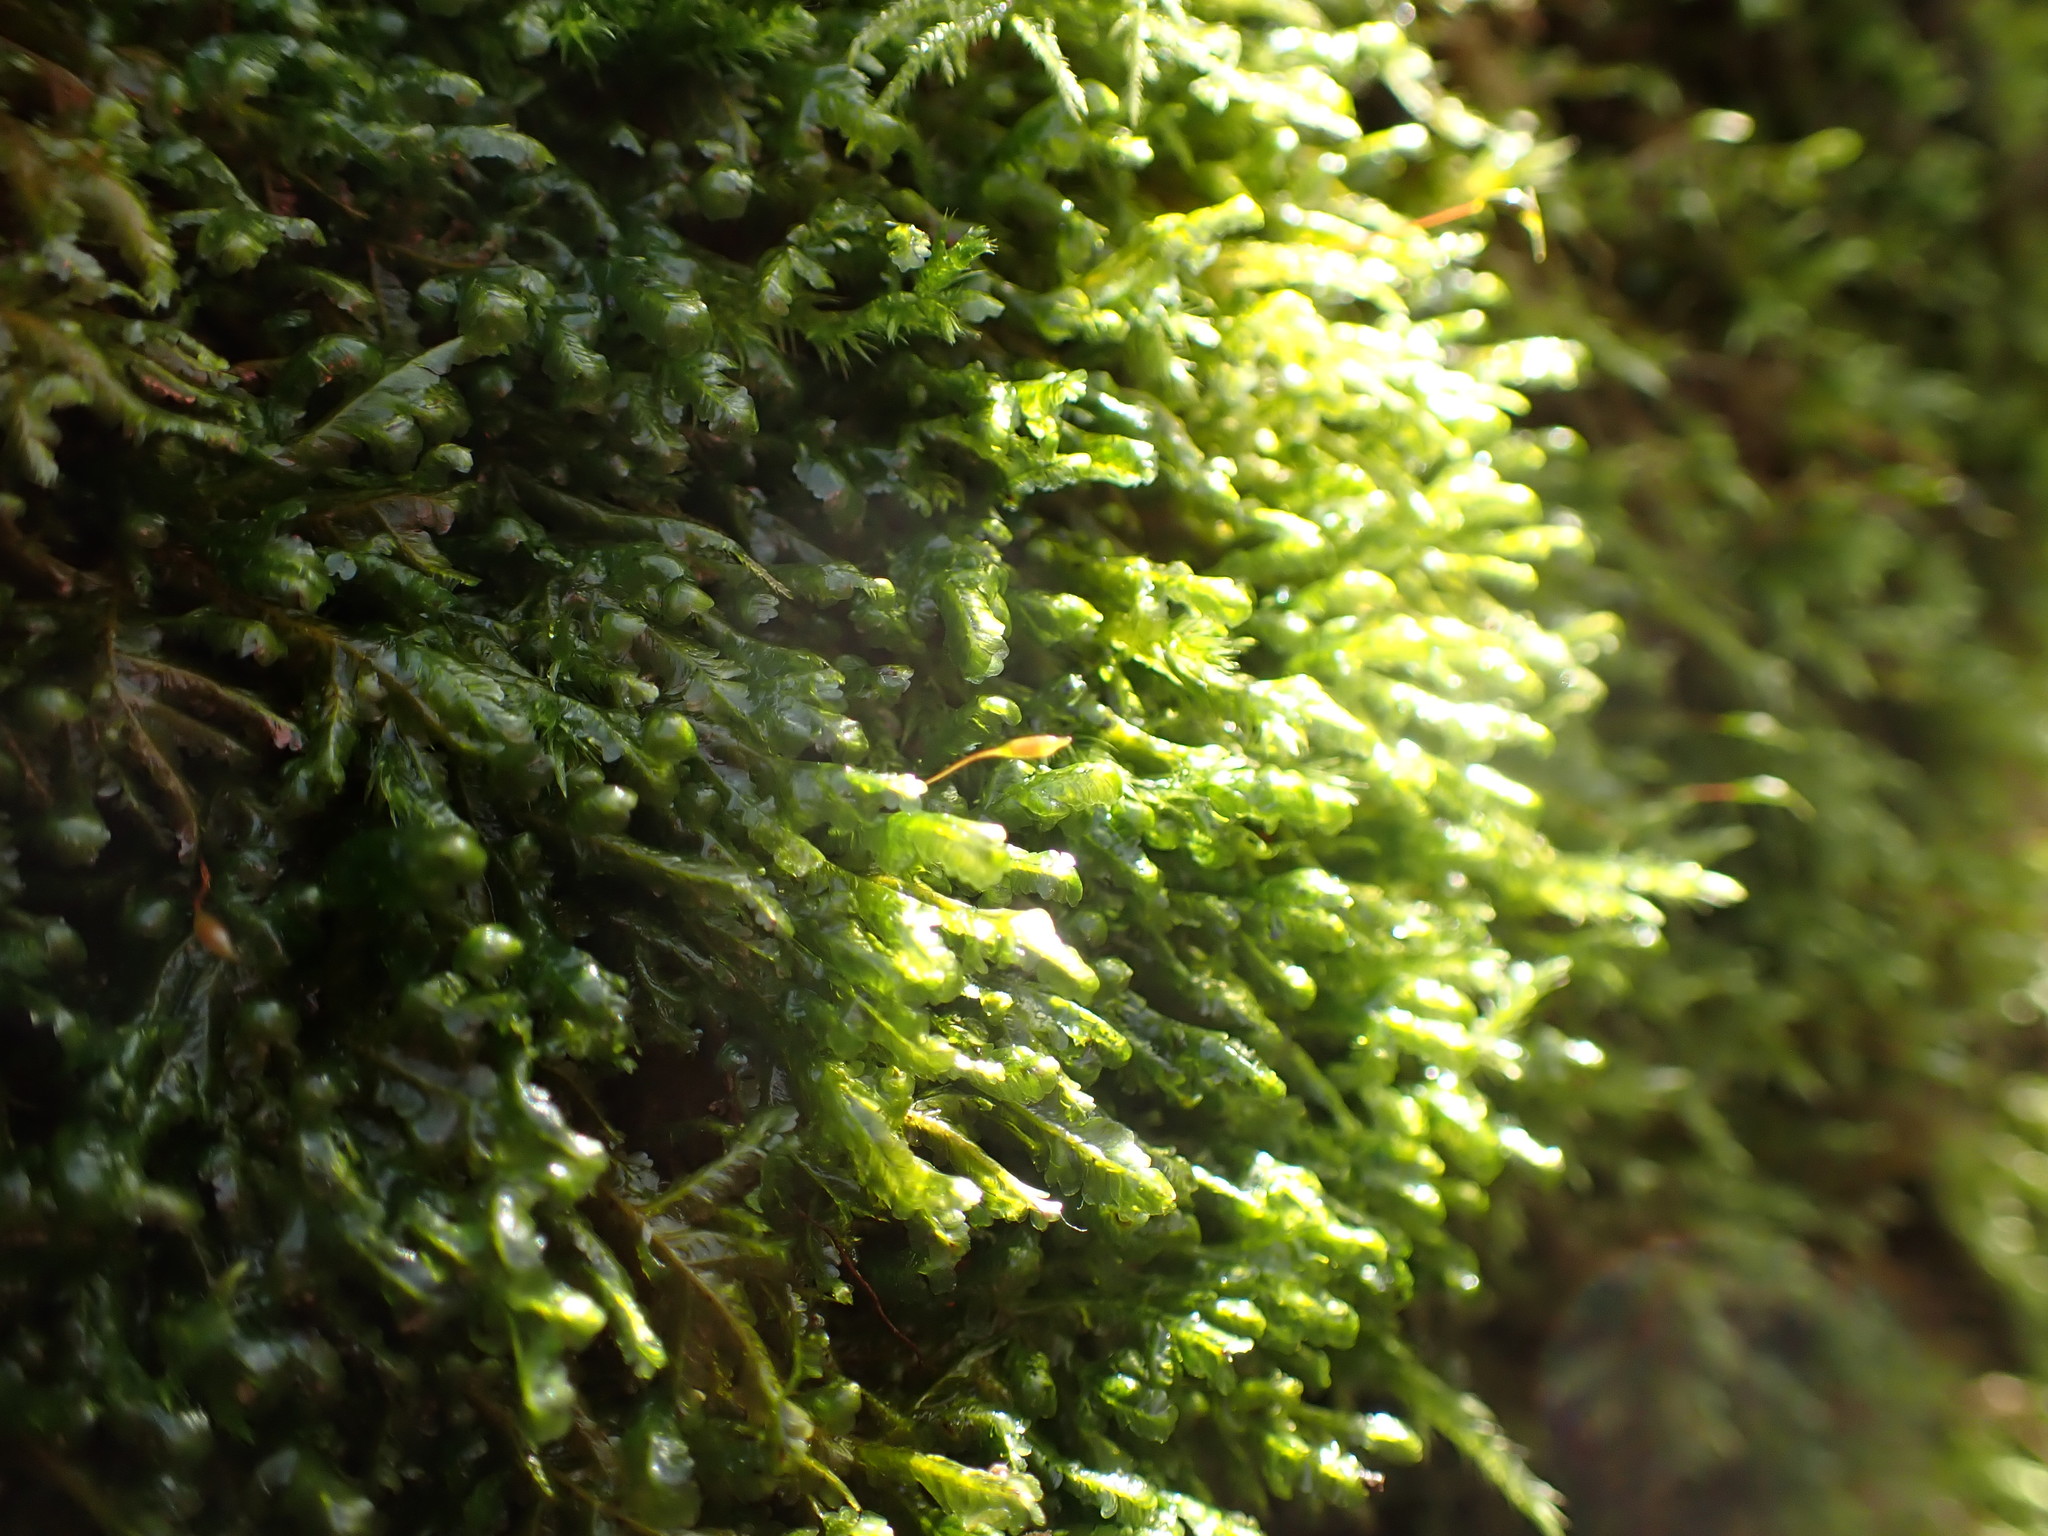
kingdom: Plantae
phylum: Bryophyta
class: Bryopsida
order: Hypnales
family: Neckeraceae
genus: Homalia
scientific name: Homalia trichomanoides
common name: Lime homalia moss
